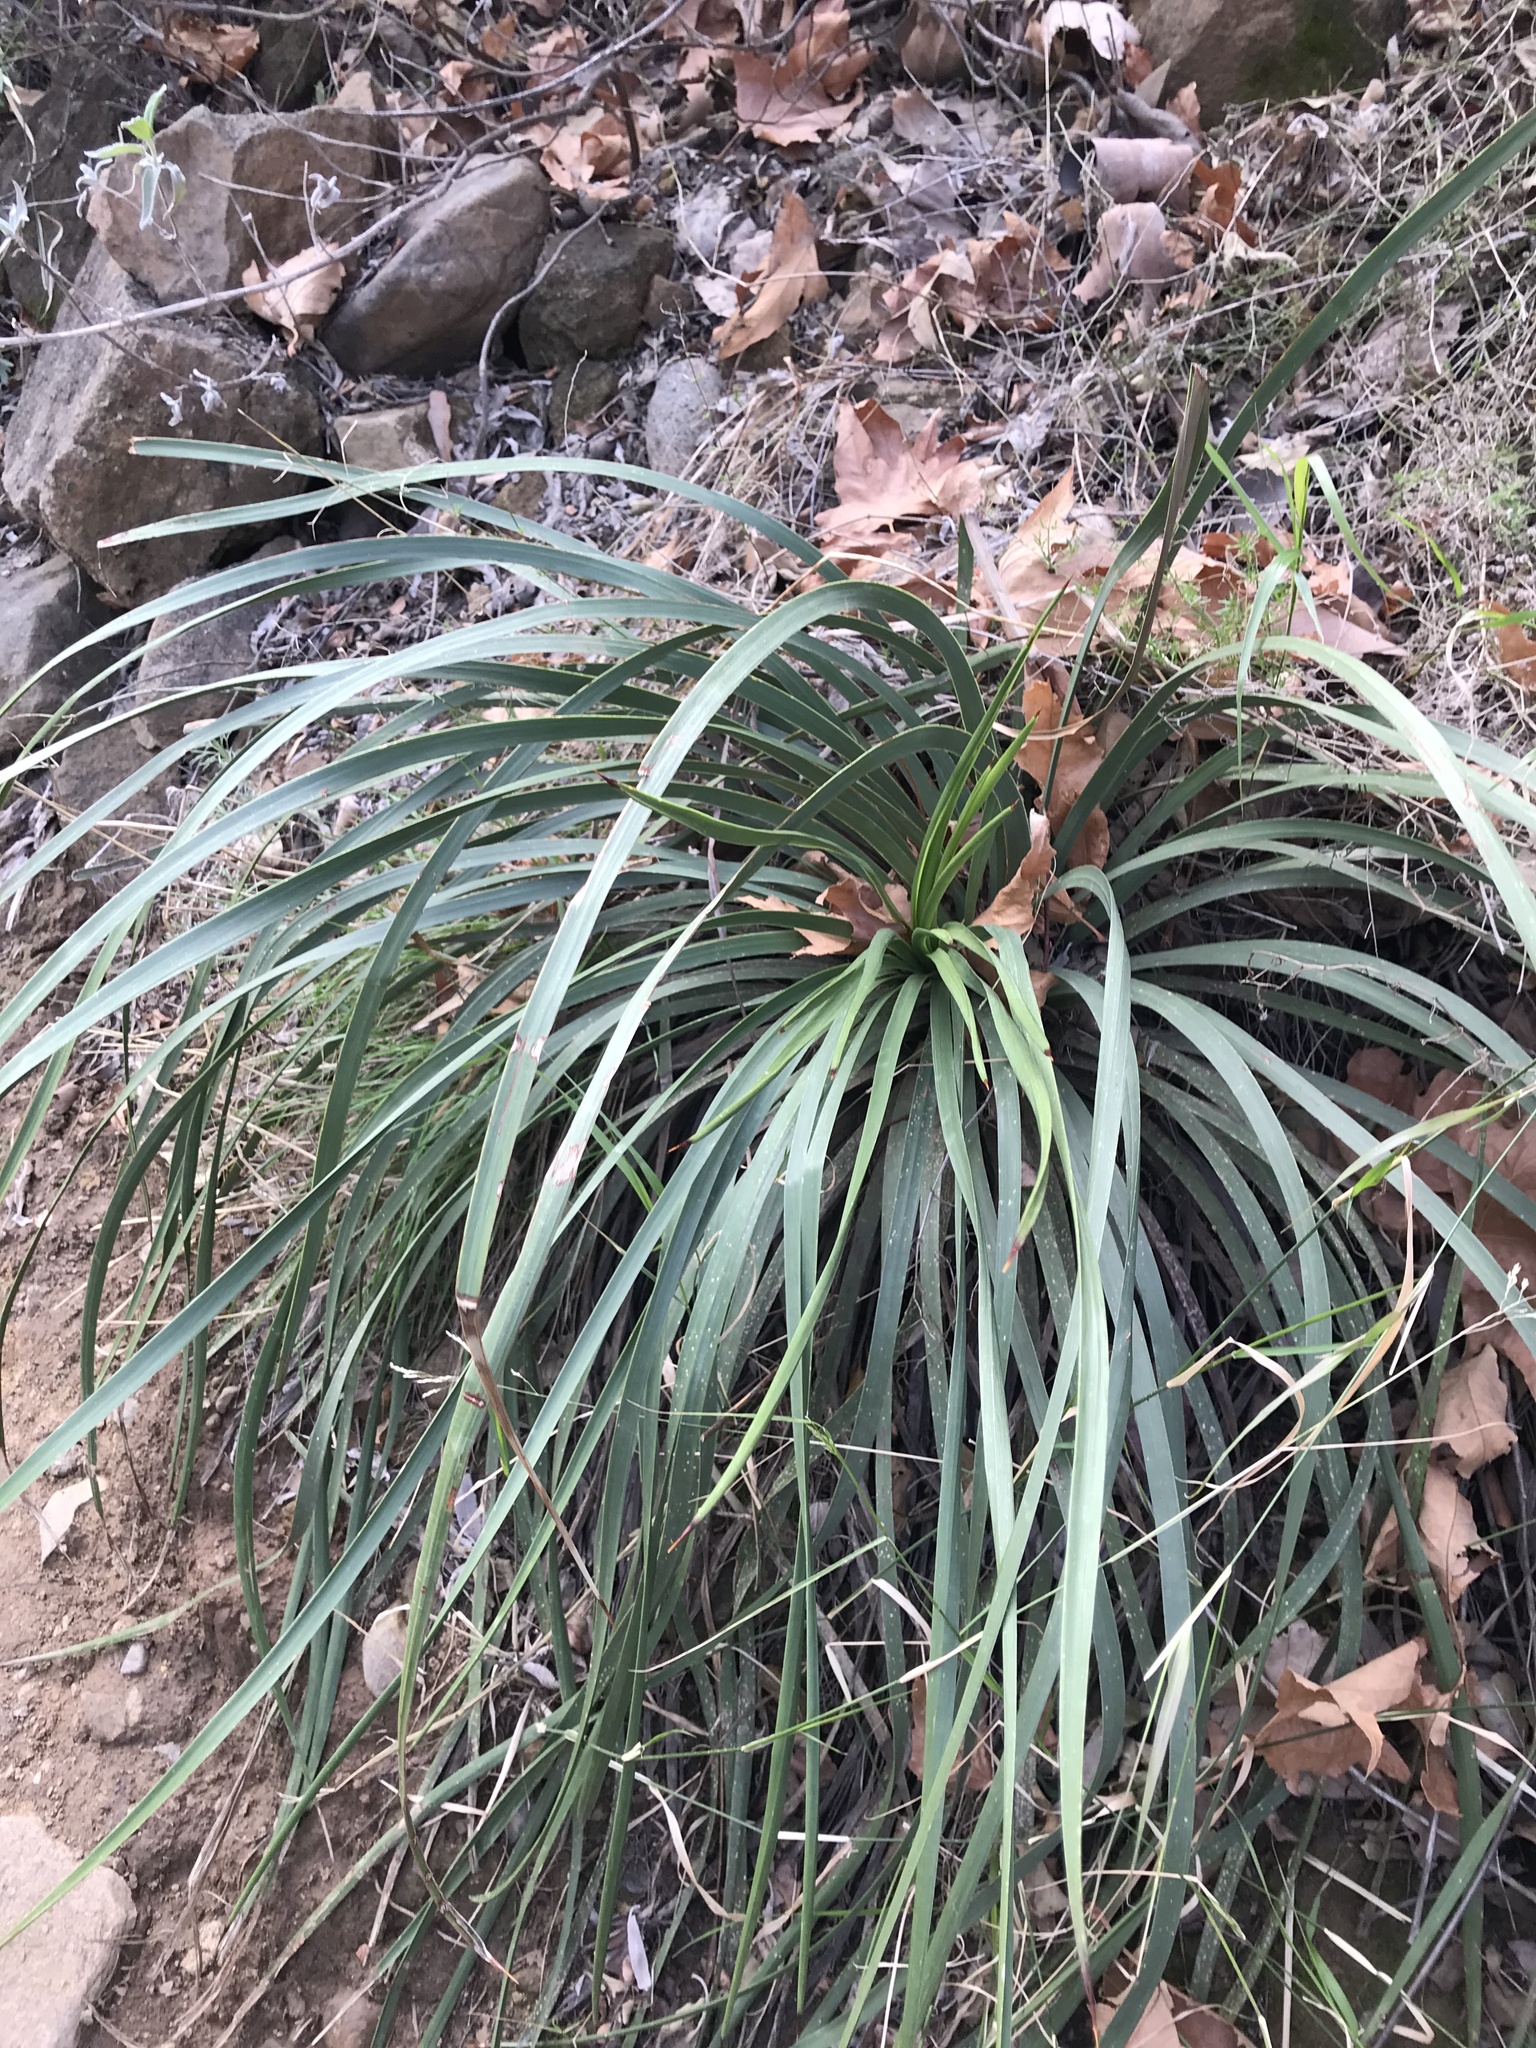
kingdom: Plantae
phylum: Tracheophyta
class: Liliopsida
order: Asparagales
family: Asparagaceae
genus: Hesperoyucca
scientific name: Hesperoyucca whipplei
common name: Our lord's-candle
